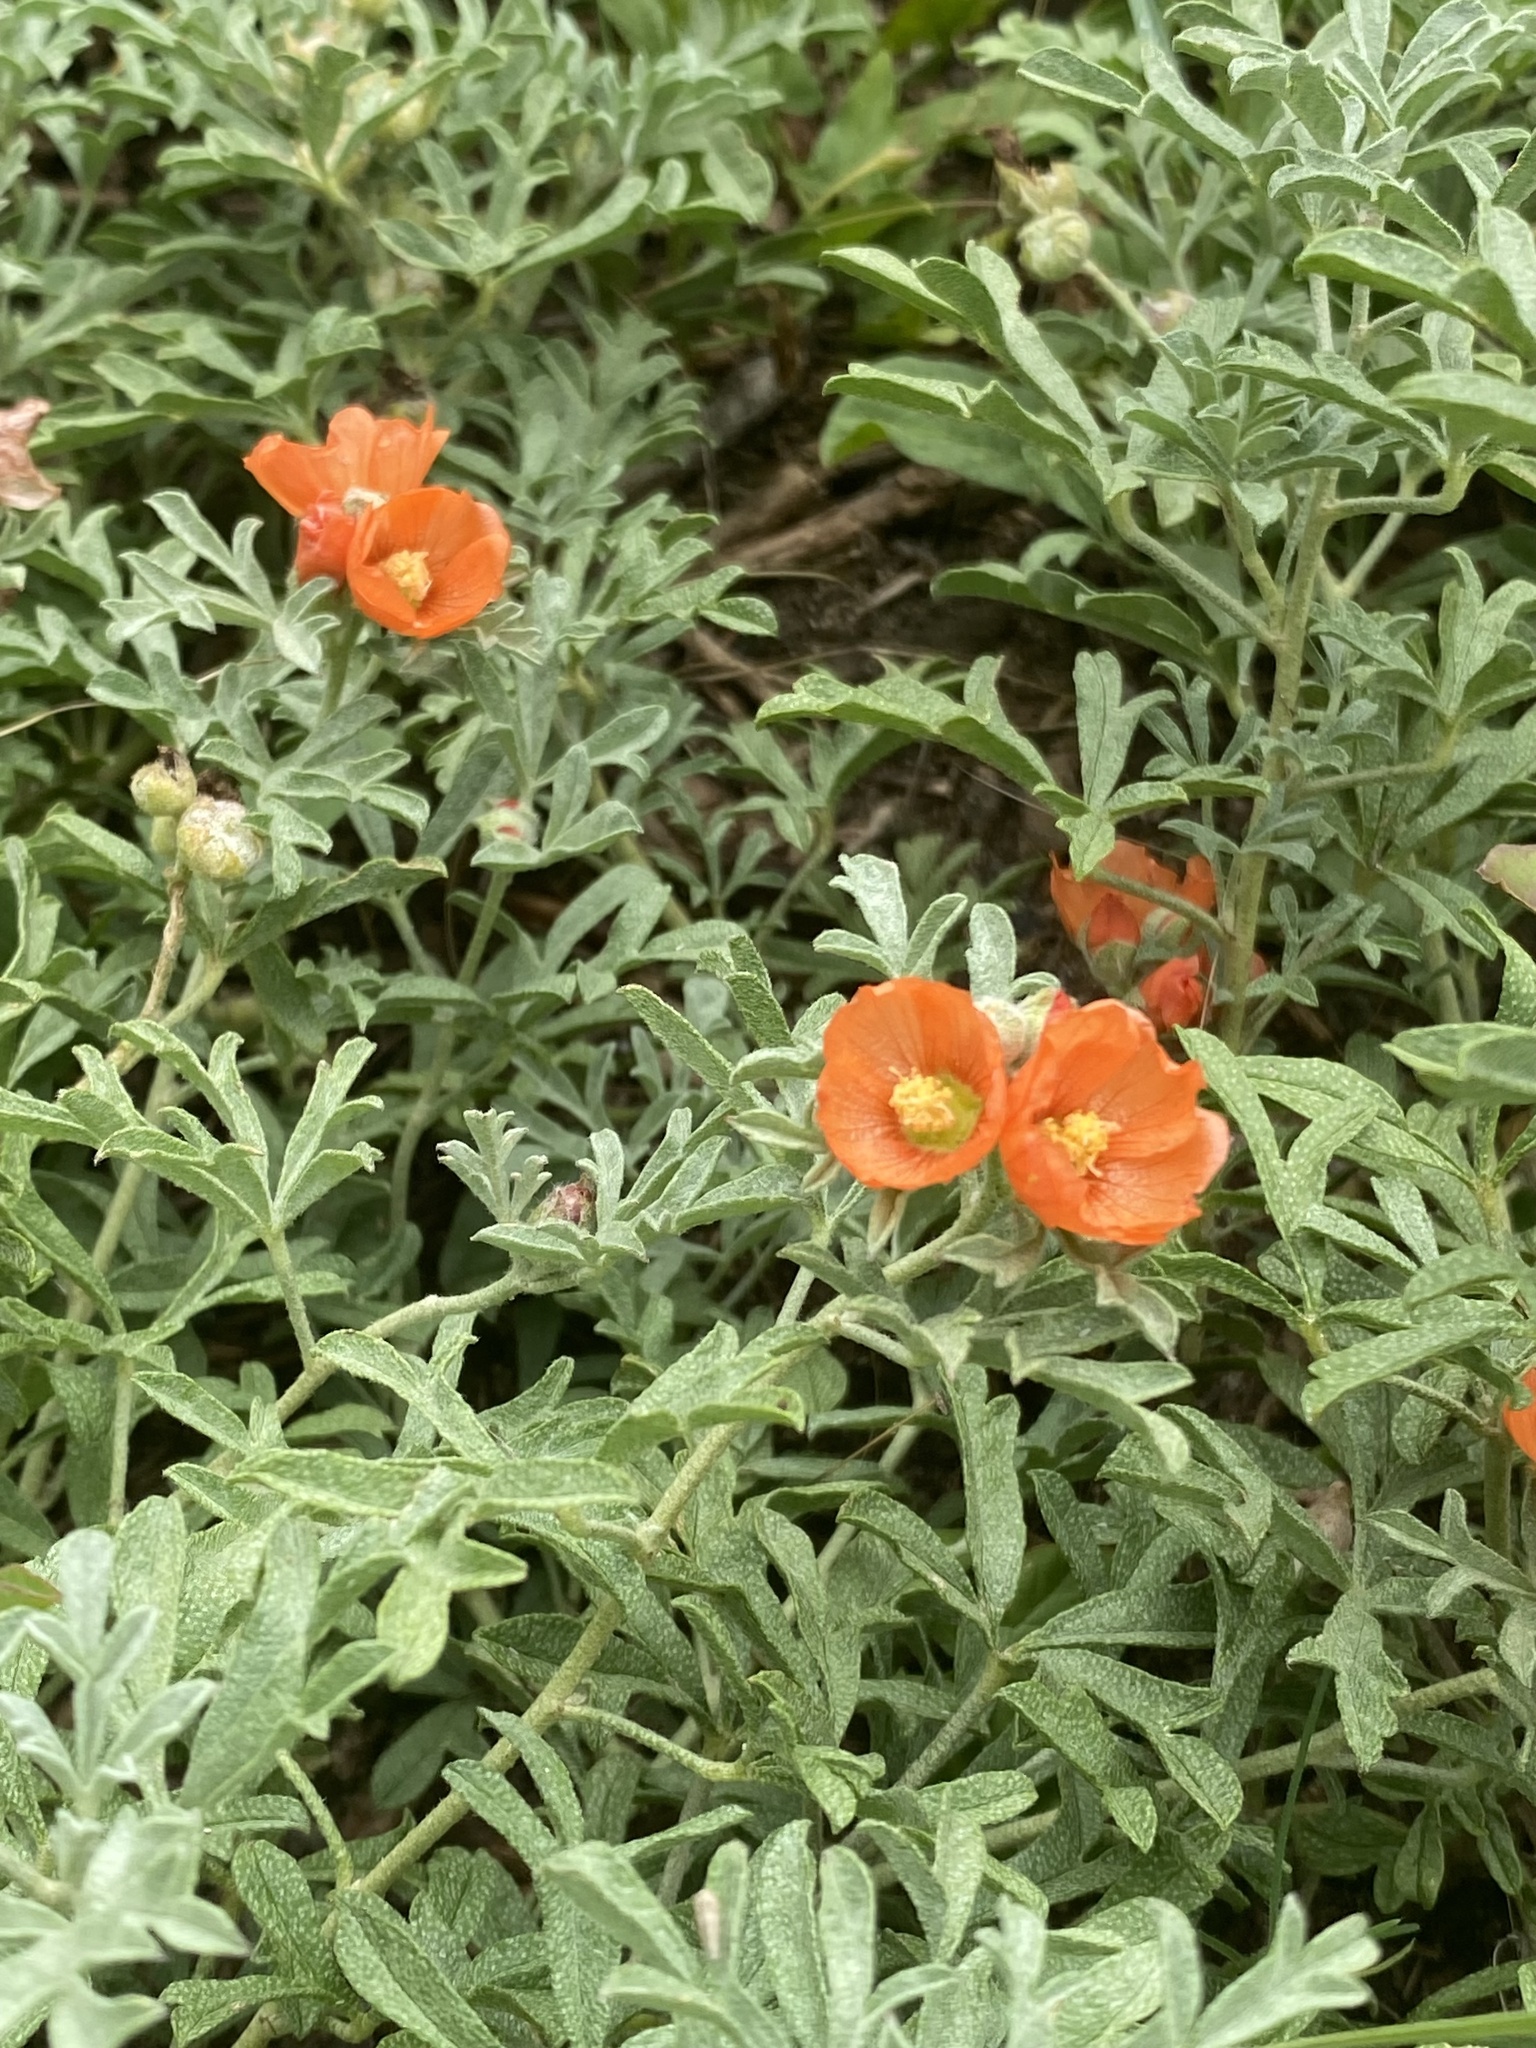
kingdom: Plantae
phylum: Tracheophyta
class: Magnoliopsida
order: Malvales
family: Malvaceae
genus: Sphaeralcea
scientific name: Sphaeralcea coccinea
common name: Moss-rose
